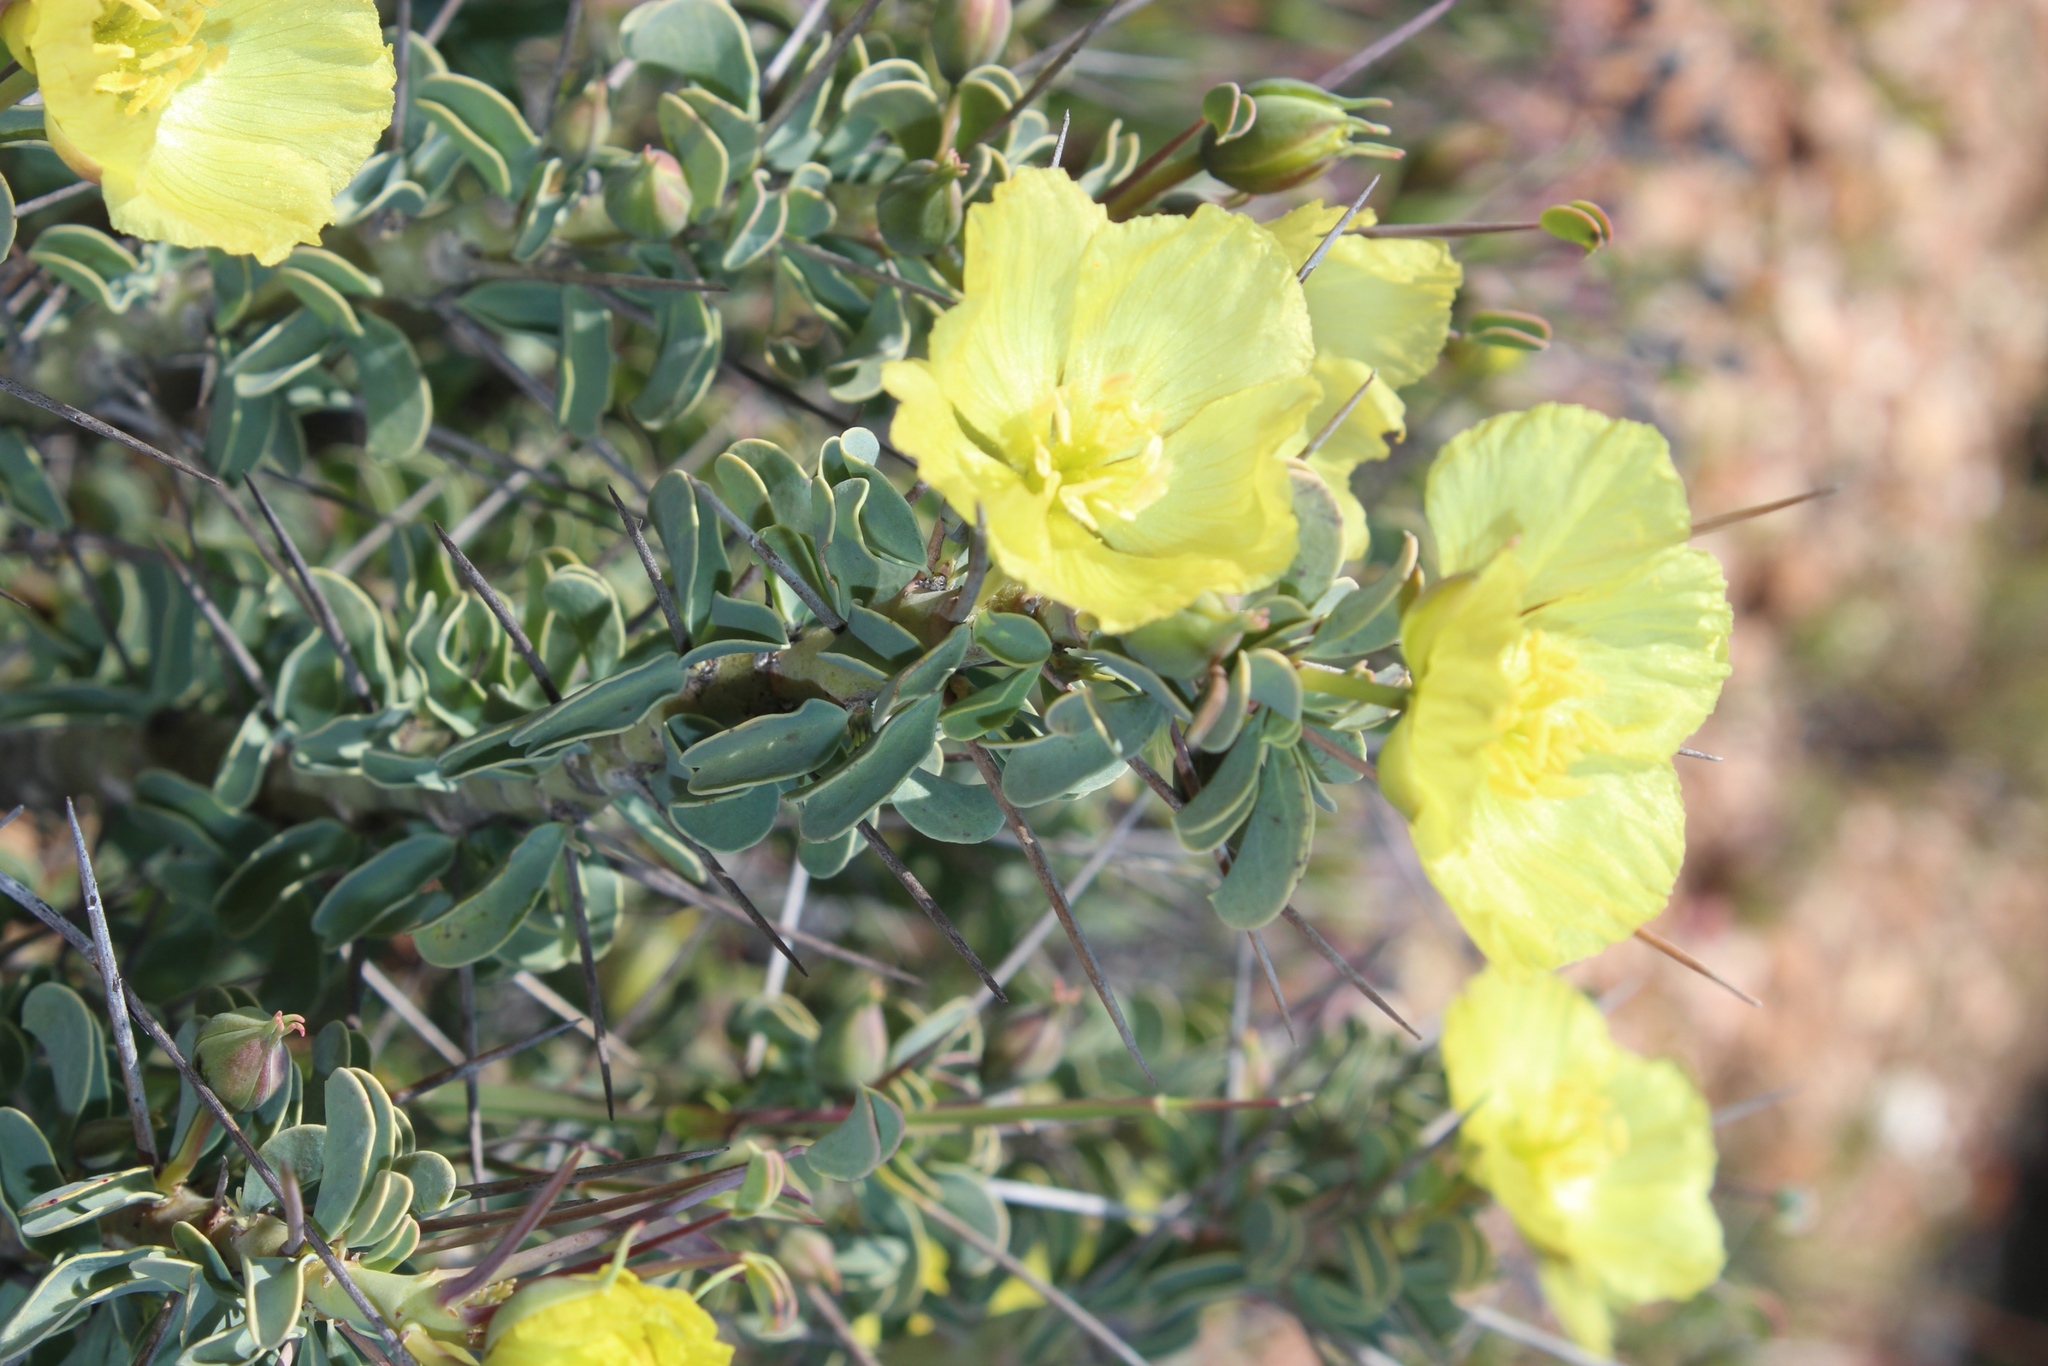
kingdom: Plantae
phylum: Tracheophyta
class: Magnoliopsida
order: Geraniales
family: Geraniaceae
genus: Monsonia
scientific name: Monsonia spinosa
